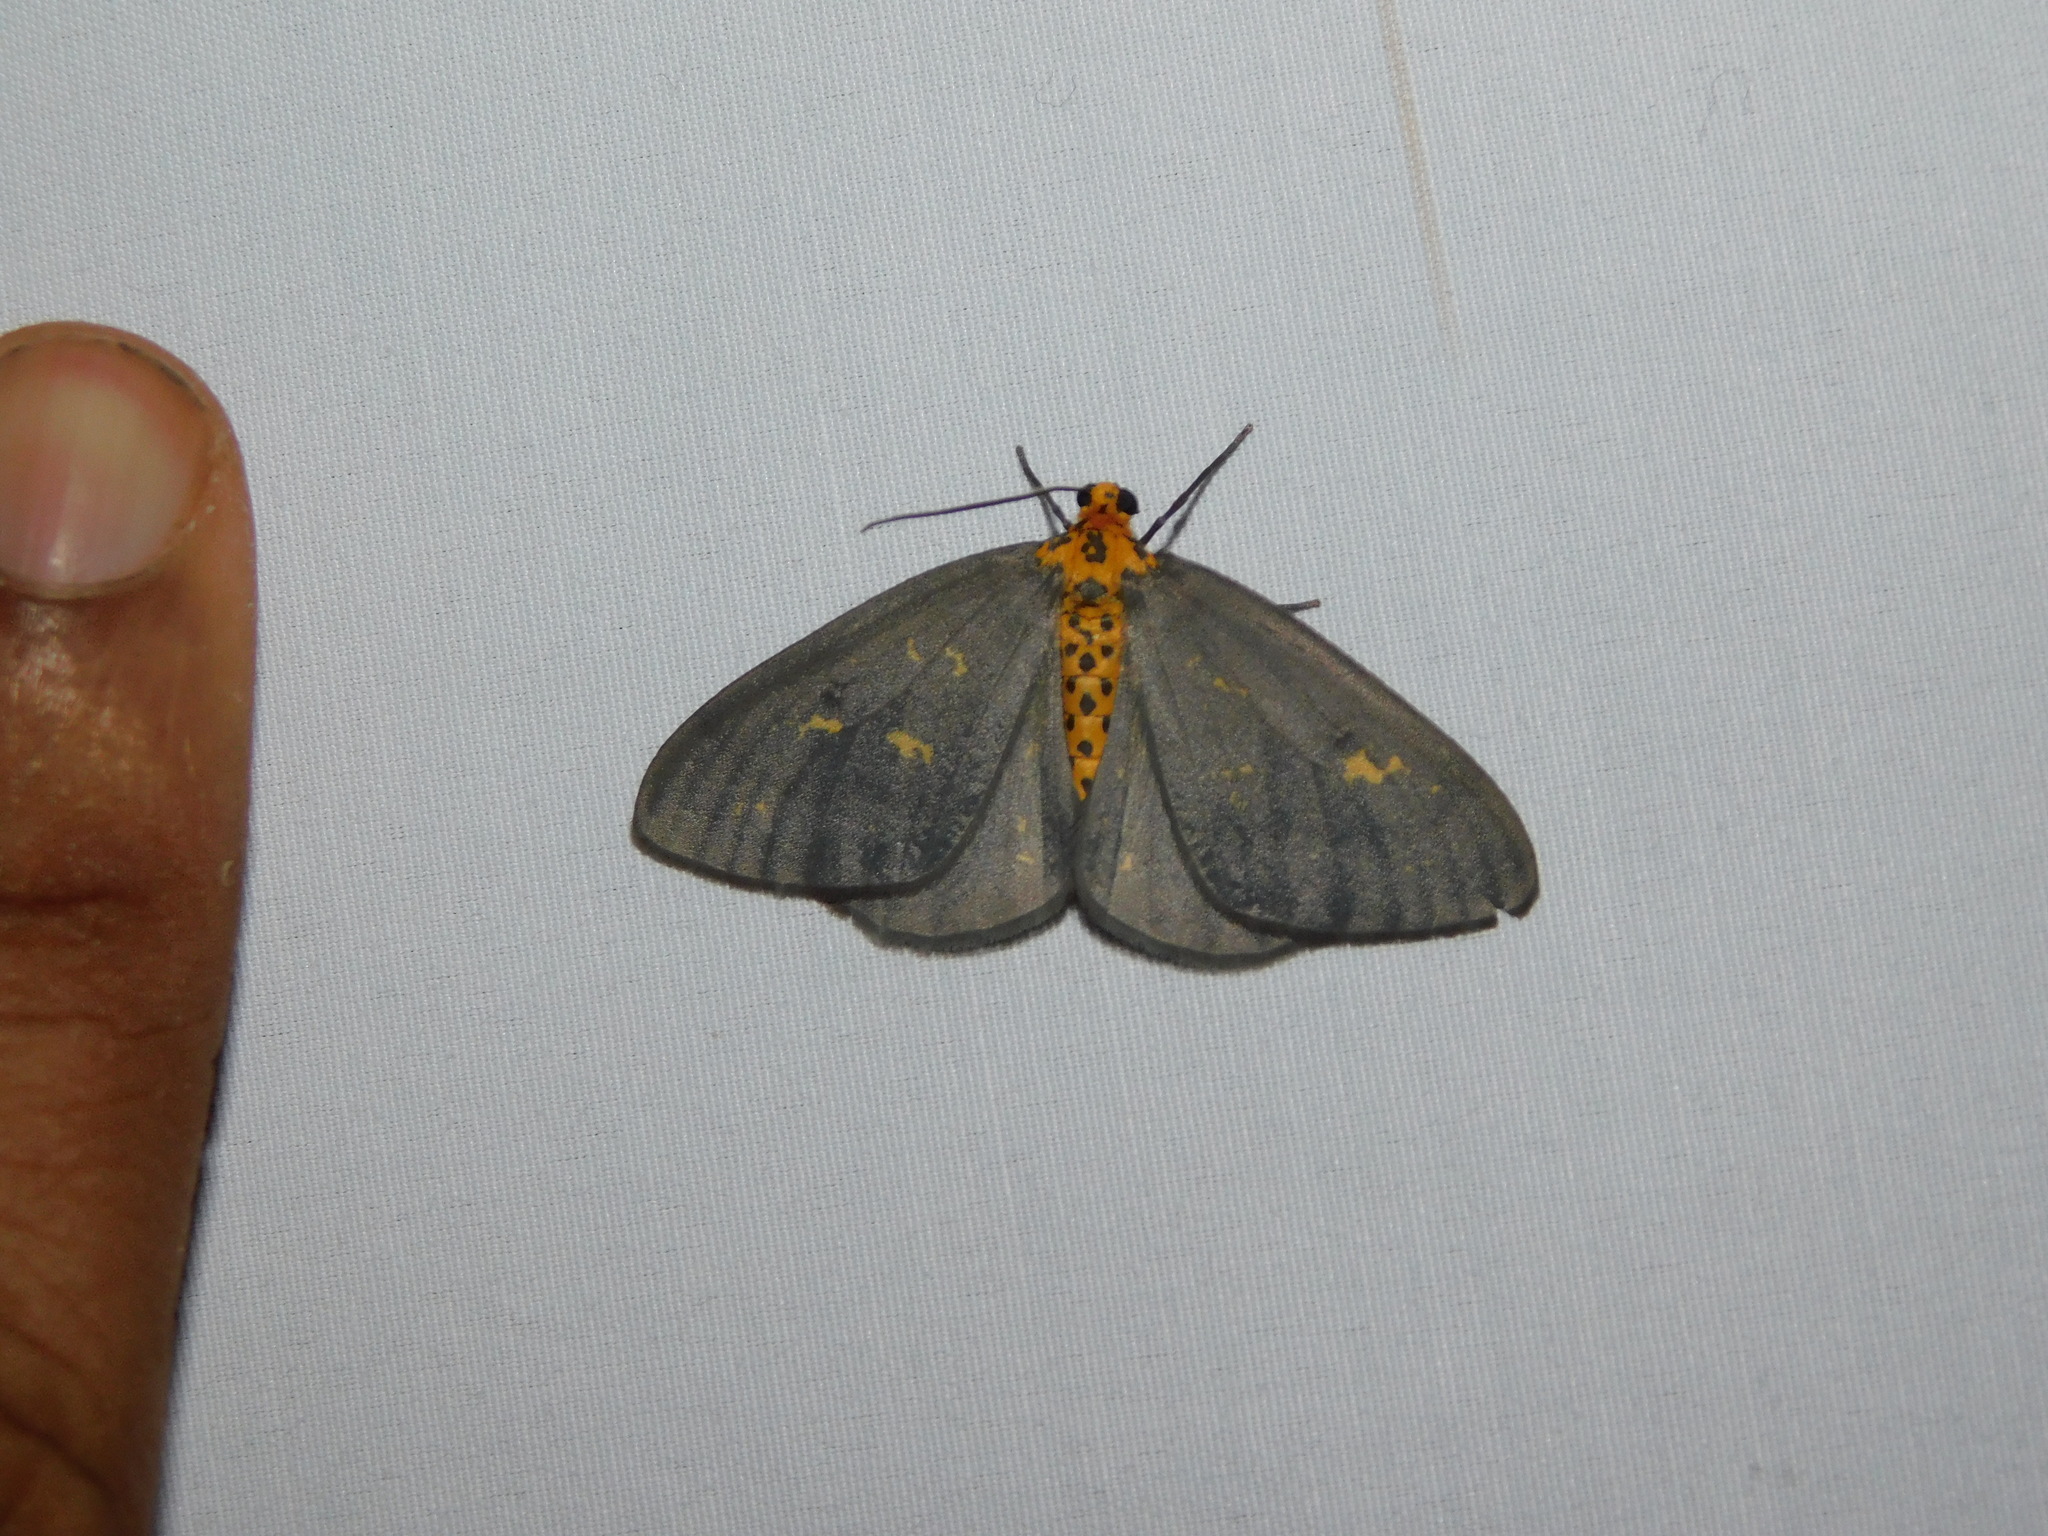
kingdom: Animalia
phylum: Arthropoda
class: Insecta
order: Lepidoptera
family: Geometridae
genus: Abraxas
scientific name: Abraxas poliaria
